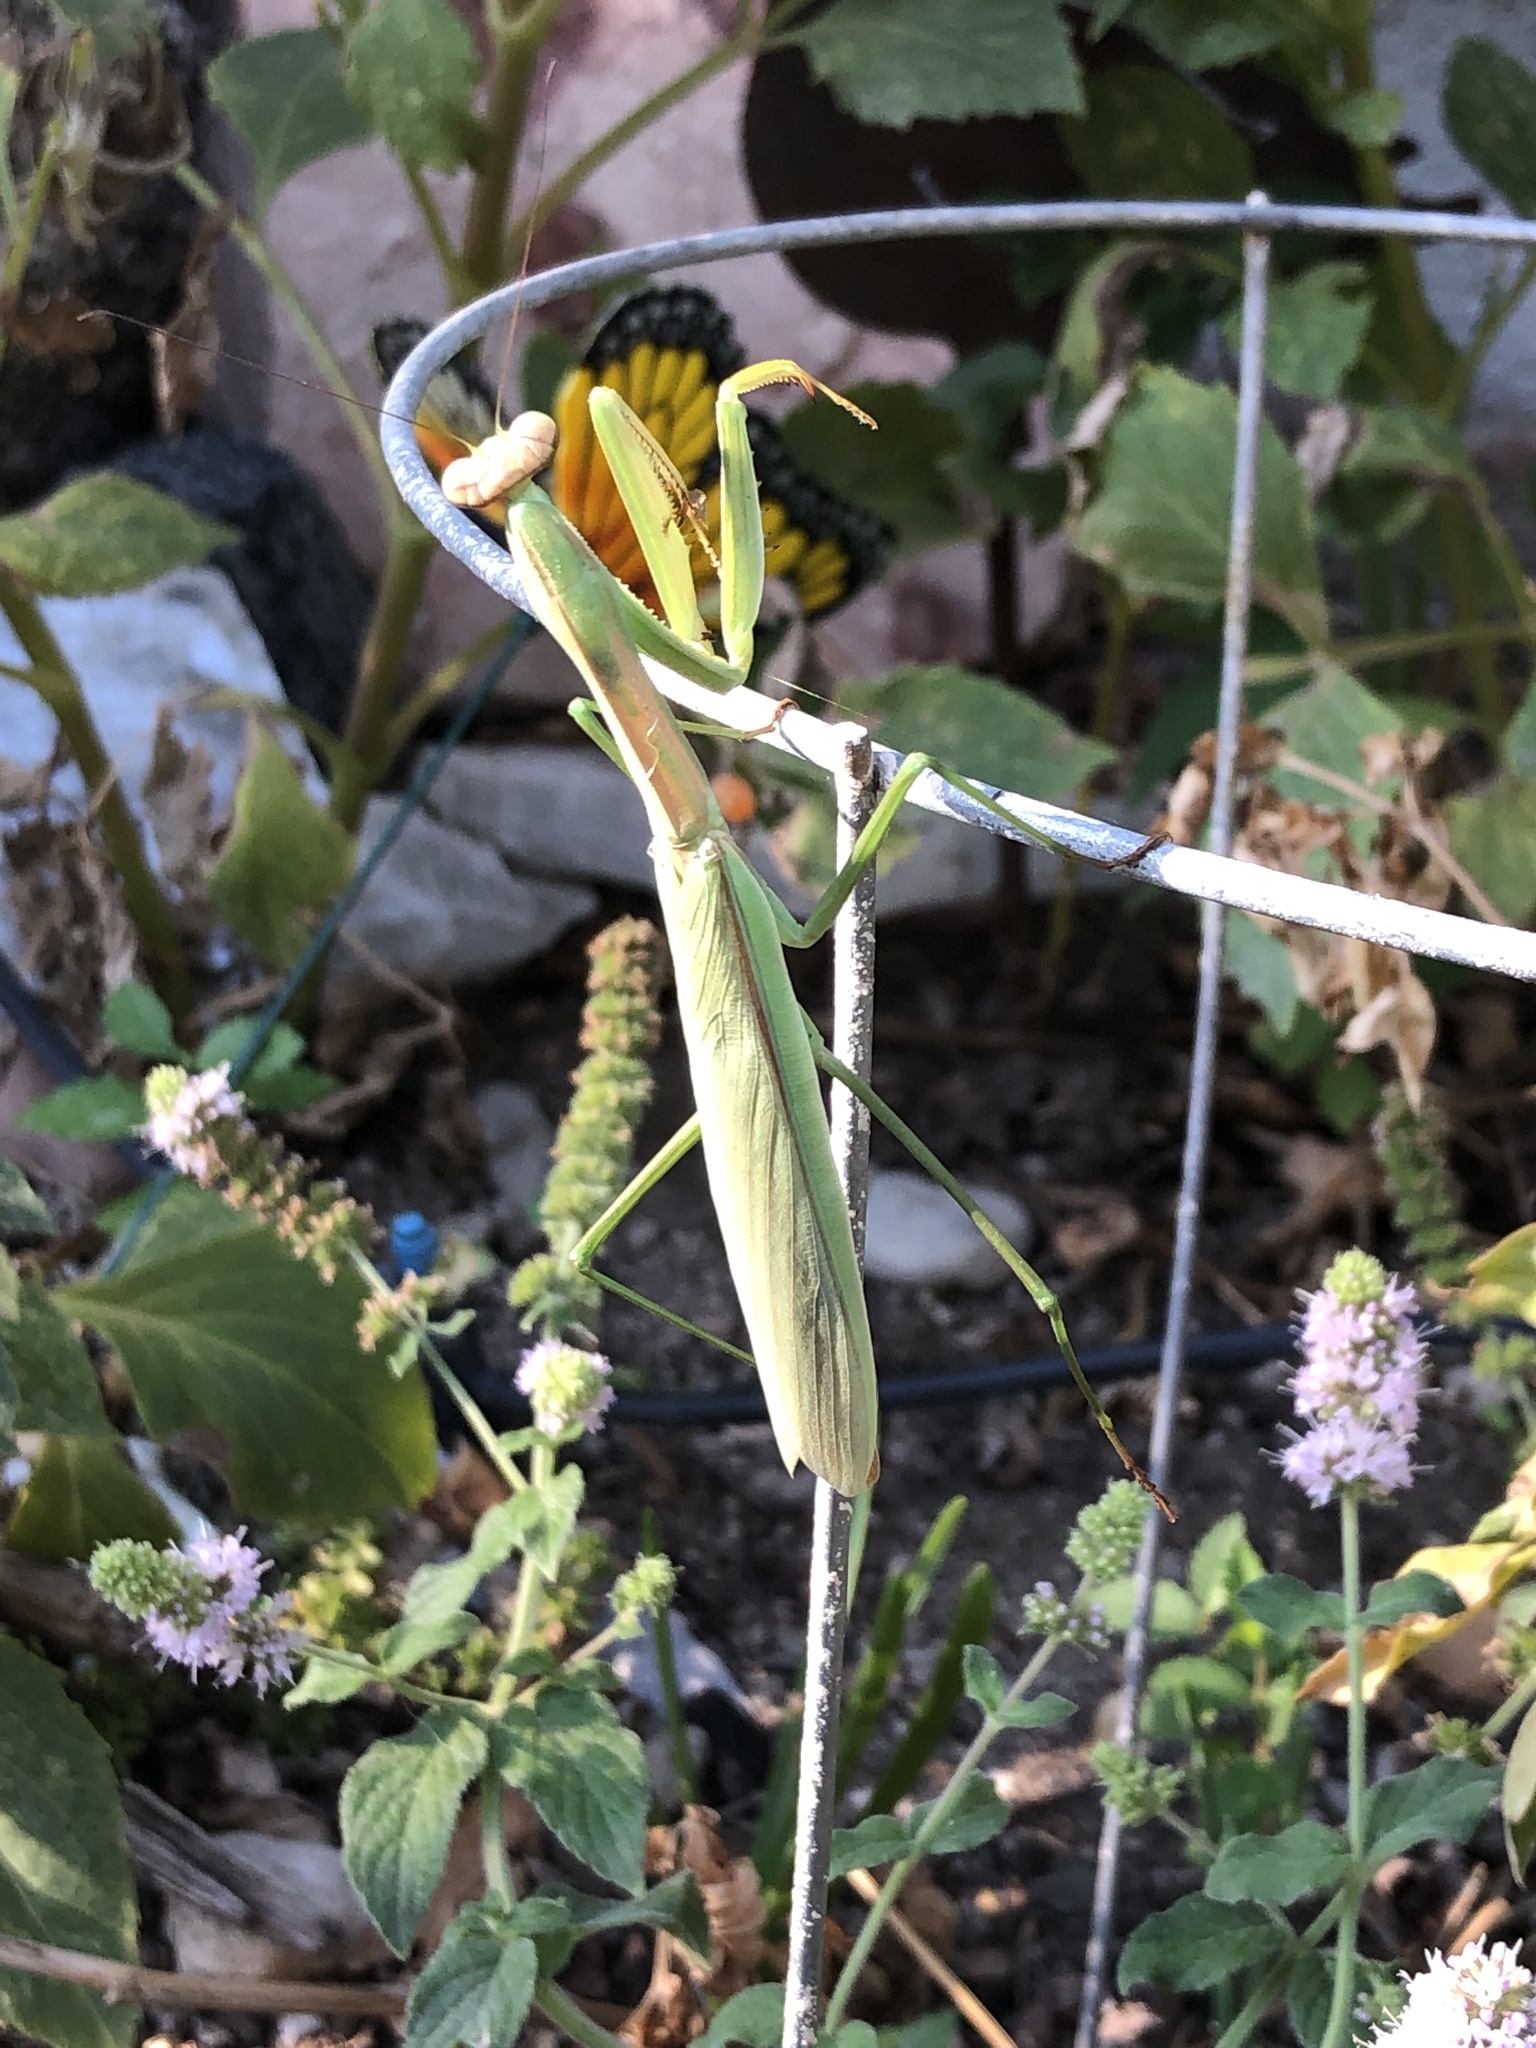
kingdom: Animalia
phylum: Arthropoda
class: Insecta
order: Mantodea
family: Mantidae
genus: Tenodera
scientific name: Tenodera sinensis
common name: Chinese mantis
